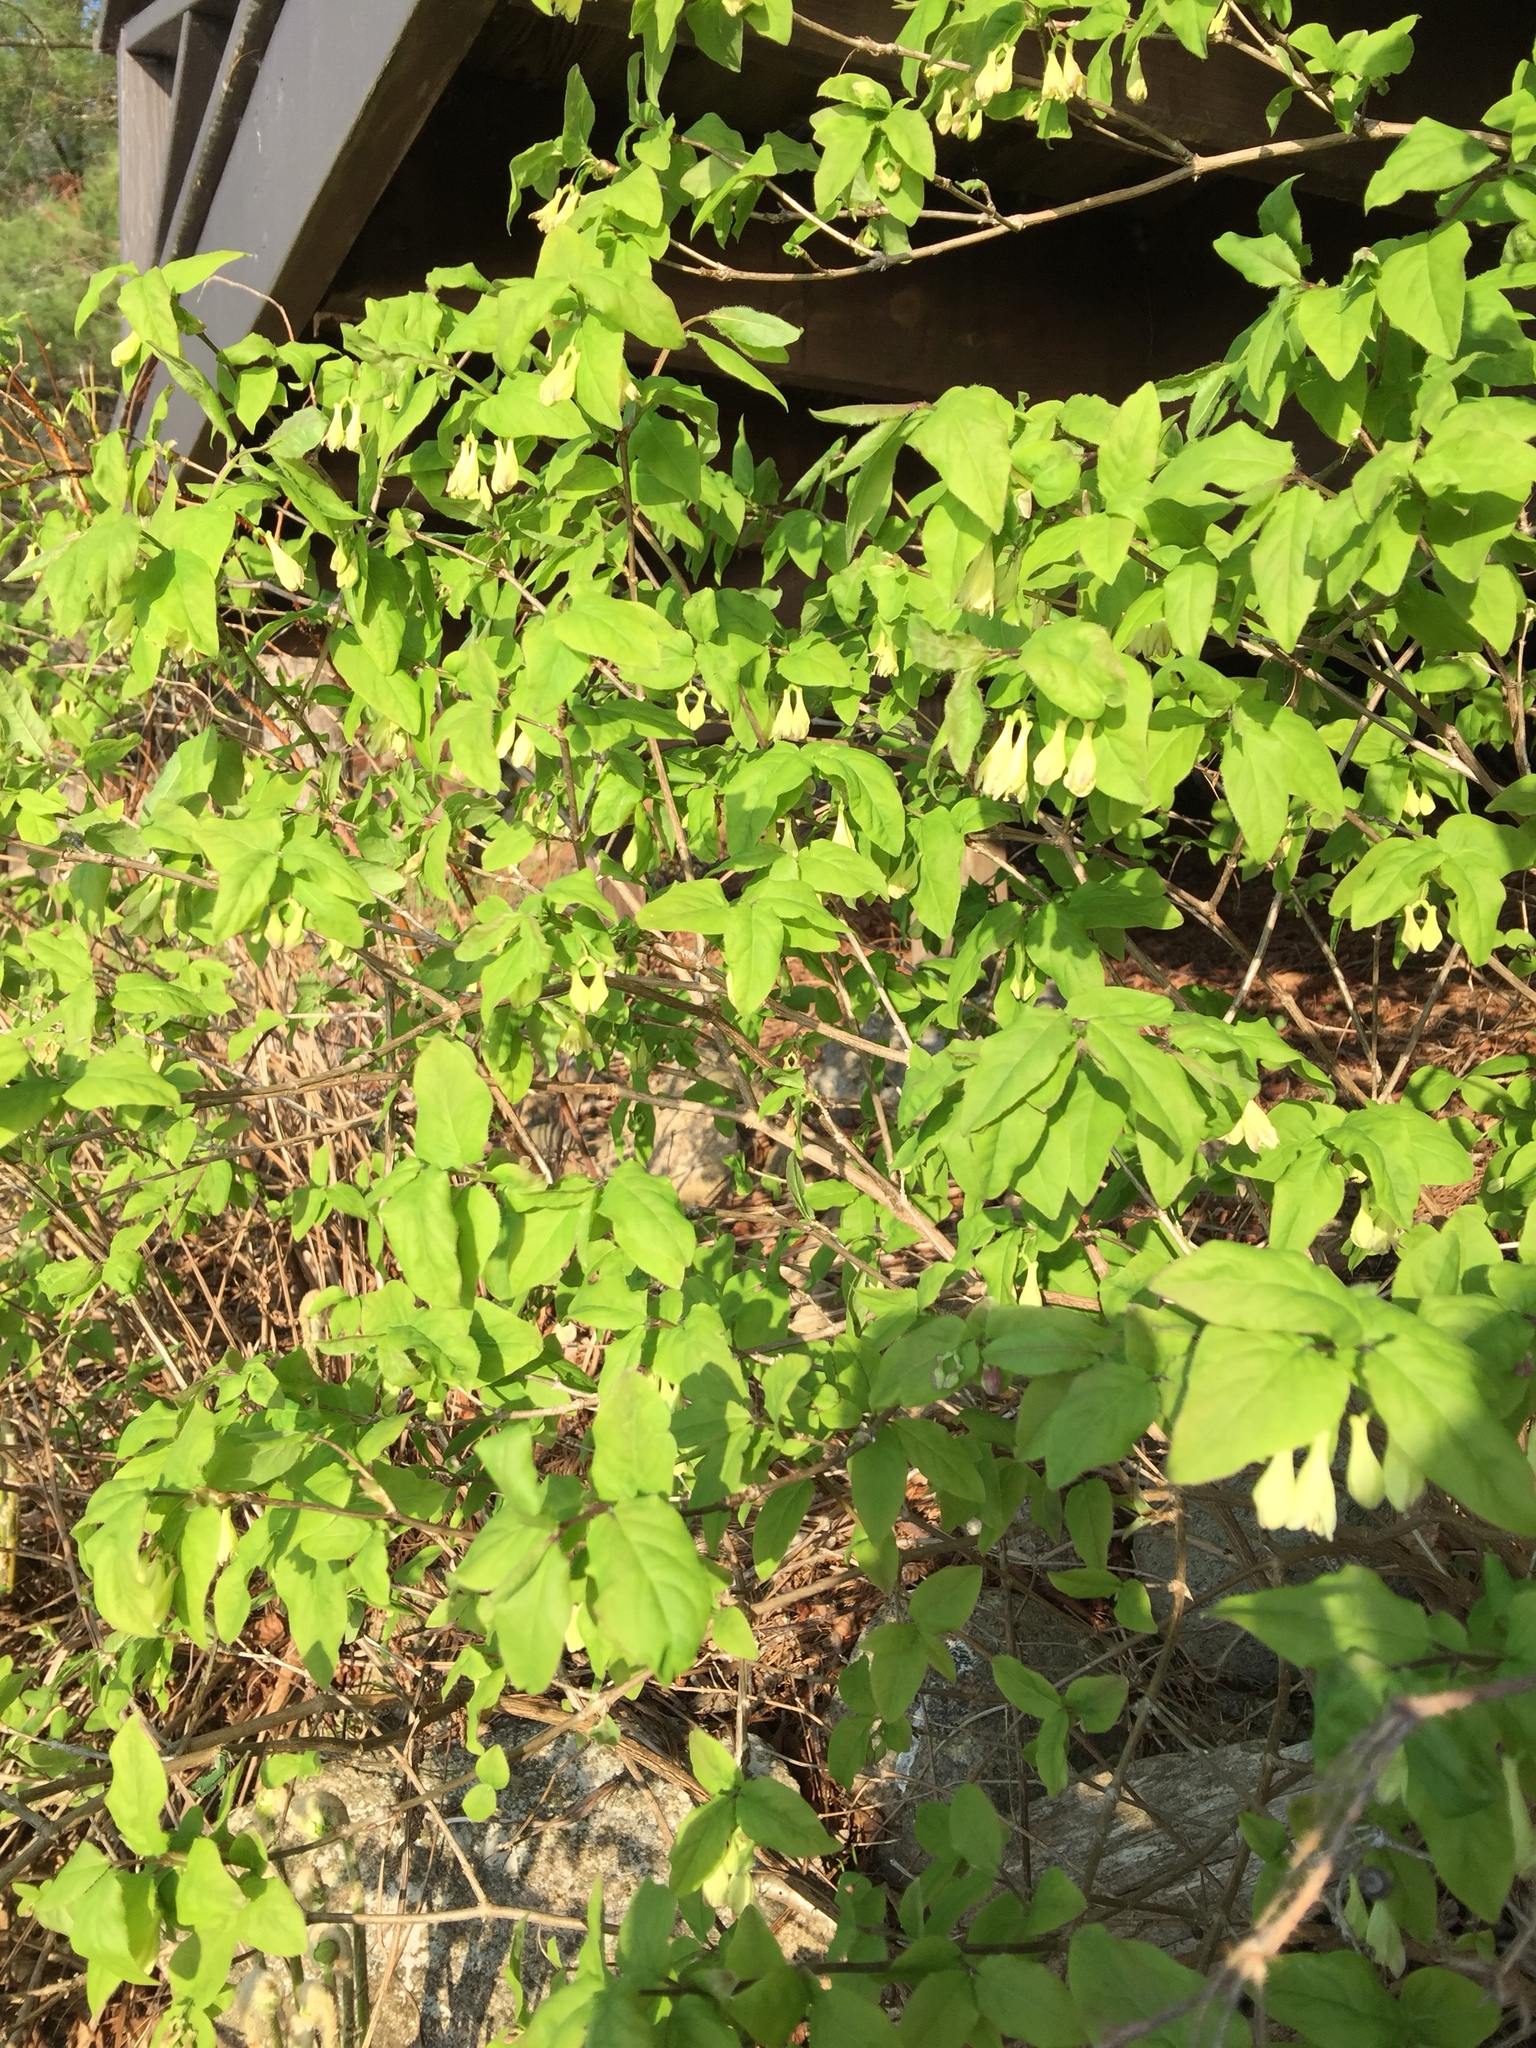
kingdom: Plantae
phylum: Tracheophyta
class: Magnoliopsida
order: Dipsacales
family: Caprifoliaceae
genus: Lonicera
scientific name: Lonicera canadensis
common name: American fly-honeysuckle
